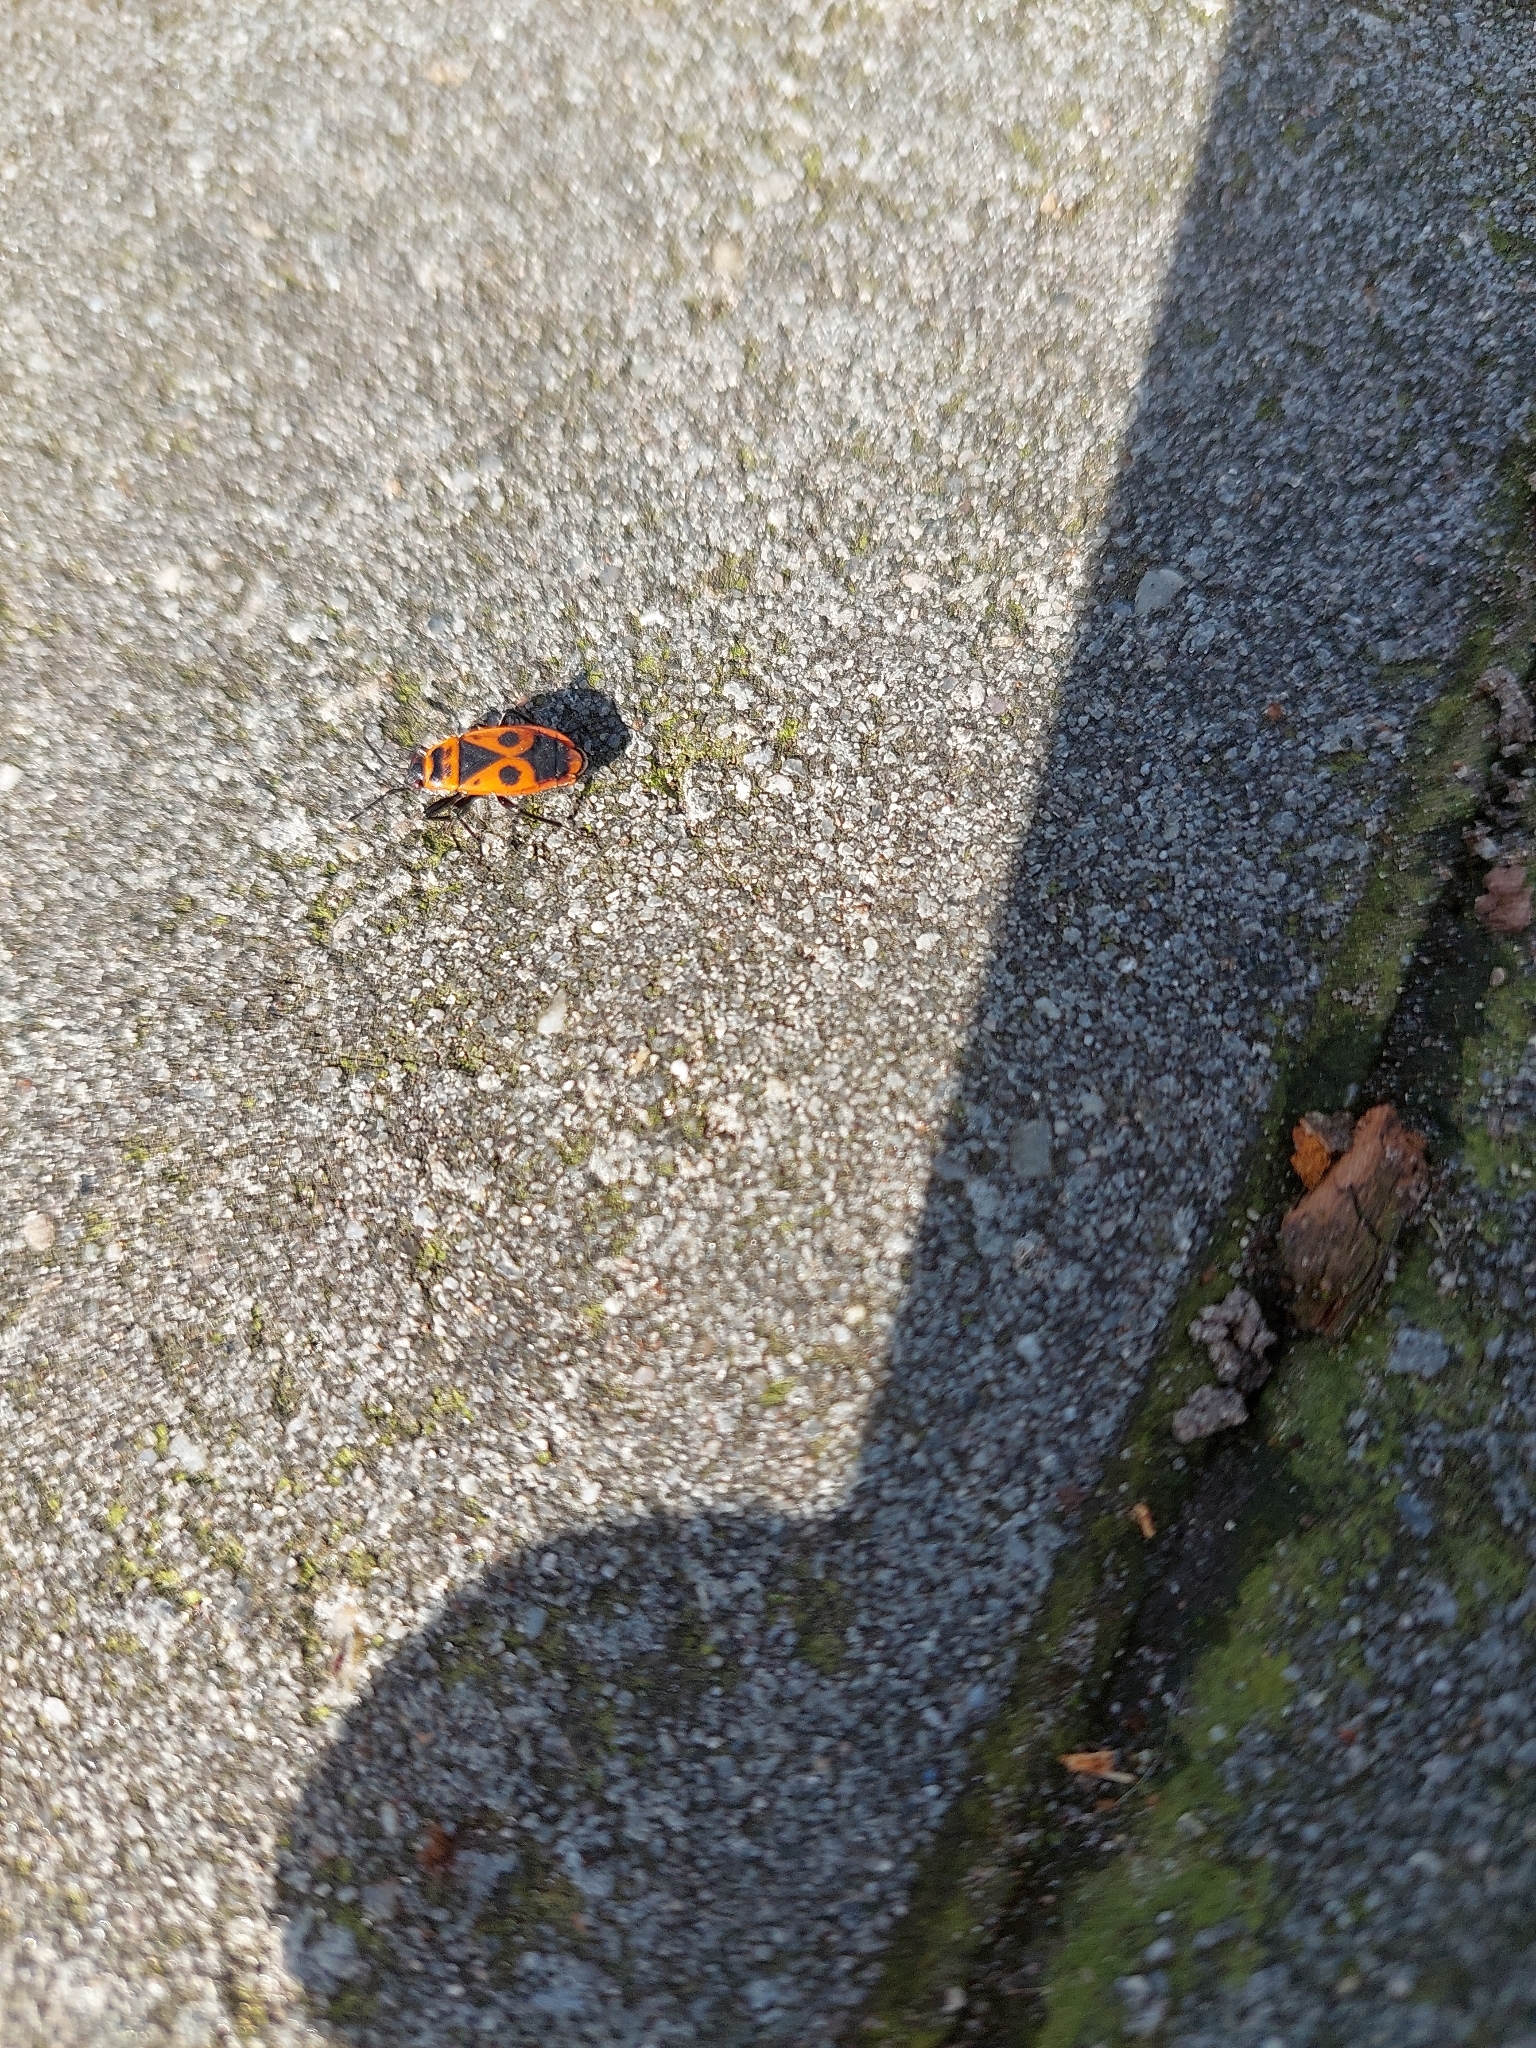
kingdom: Animalia
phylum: Arthropoda
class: Insecta
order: Hemiptera
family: Pyrrhocoridae
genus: Pyrrhocoris
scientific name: Pyrrhocoris apterus
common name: Firebug
